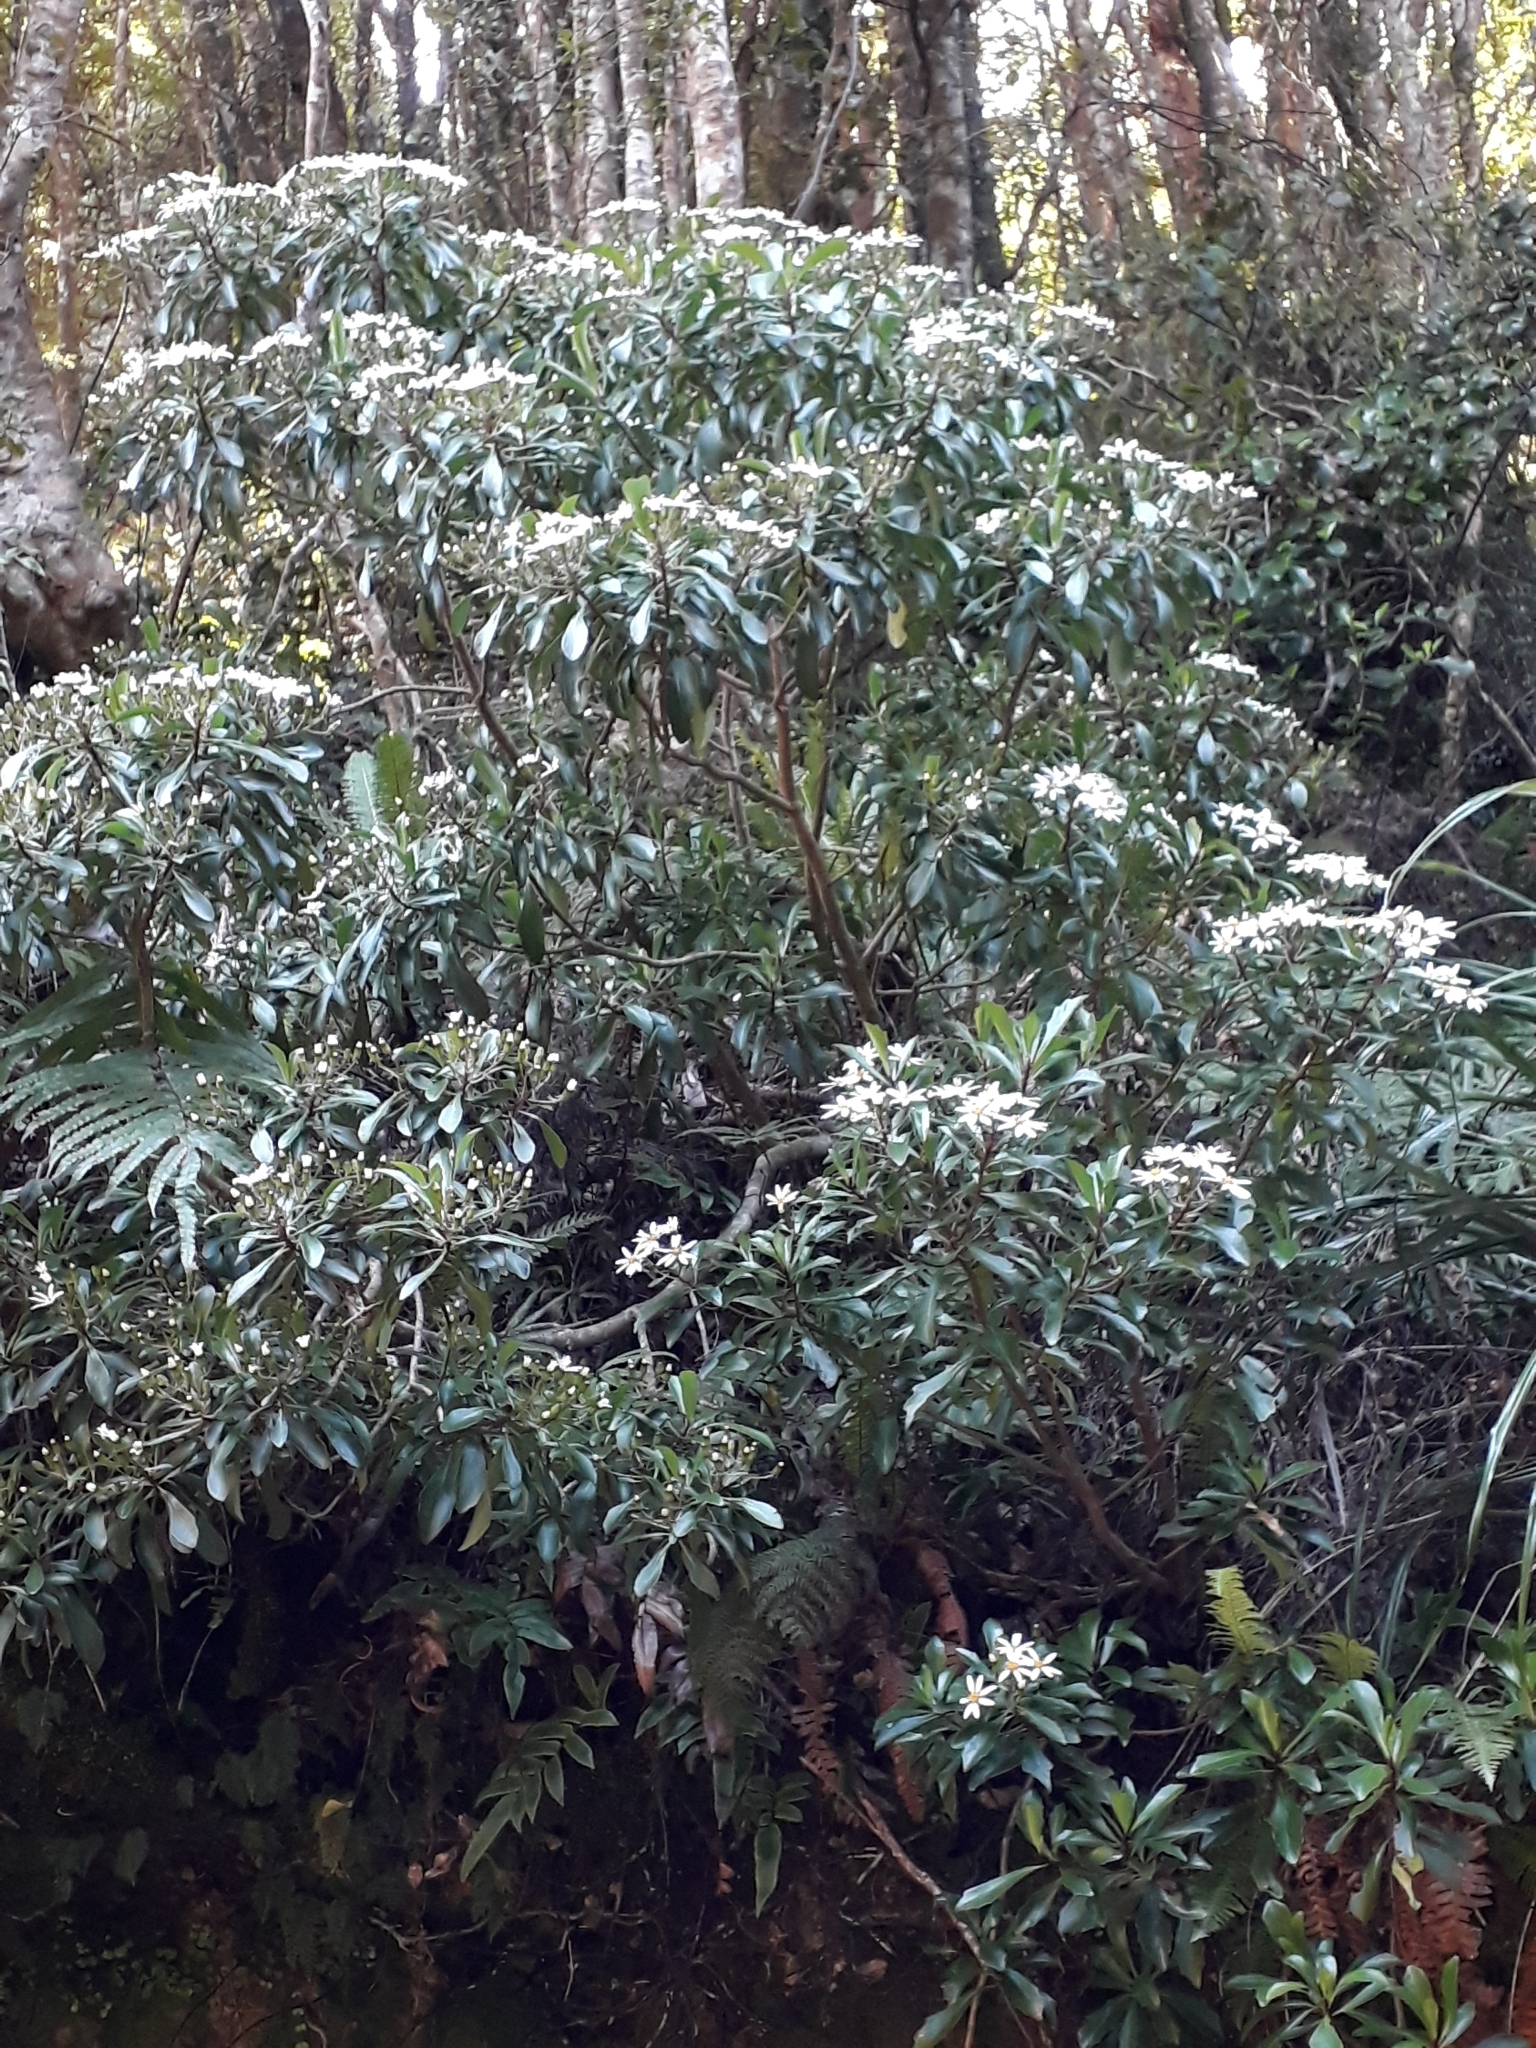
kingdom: Plantae
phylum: Tracheophyta
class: Magnoliopsida
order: Asterales
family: Asteraceae
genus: Brachyglottis
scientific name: Brachyglottis kirkii
